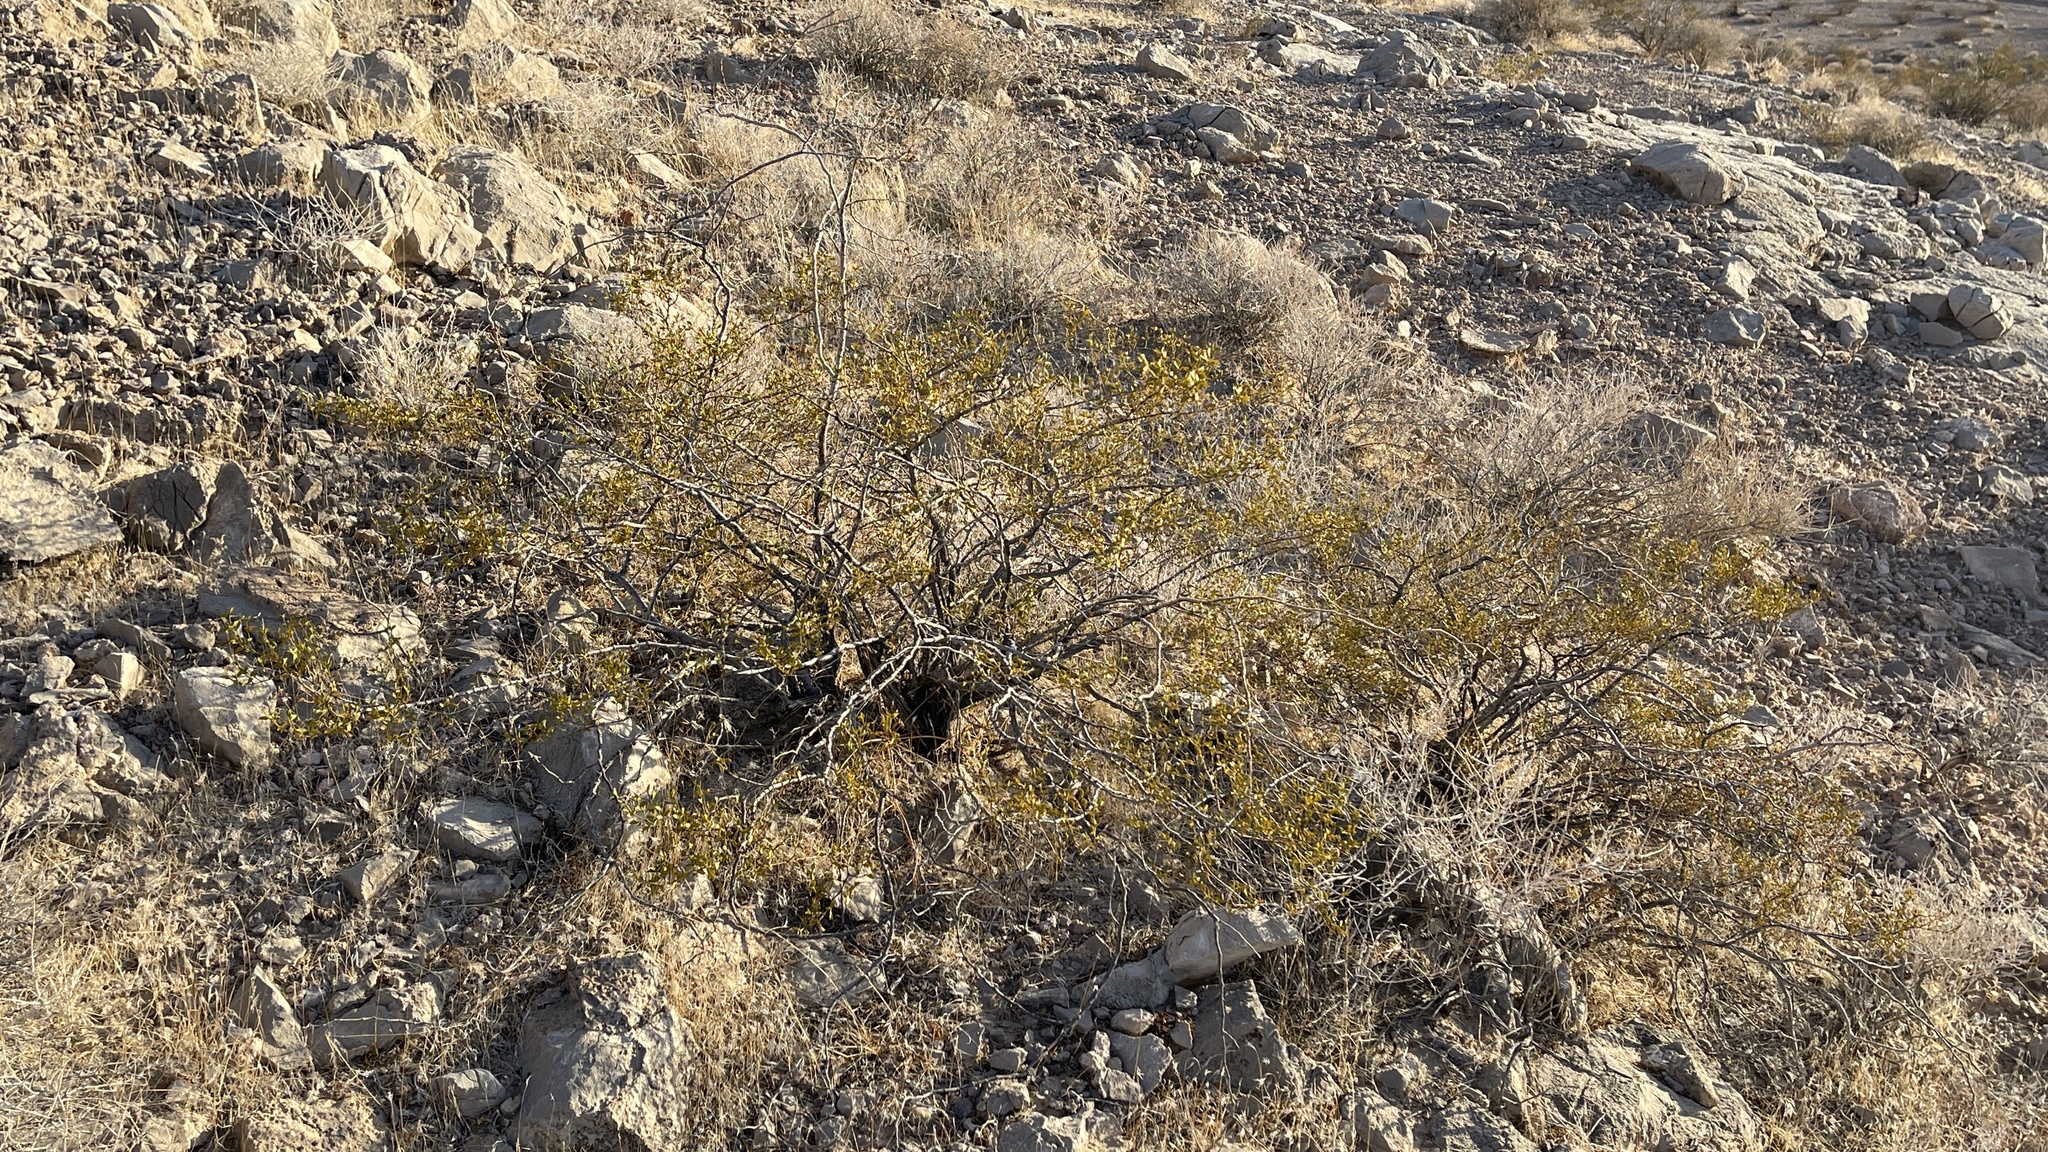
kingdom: Plantae
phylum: Tracheophyta
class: Magnoliopsida
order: Zygophyllales
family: Zygophyllaceae
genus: Larrea
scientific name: Larrea tridentata
